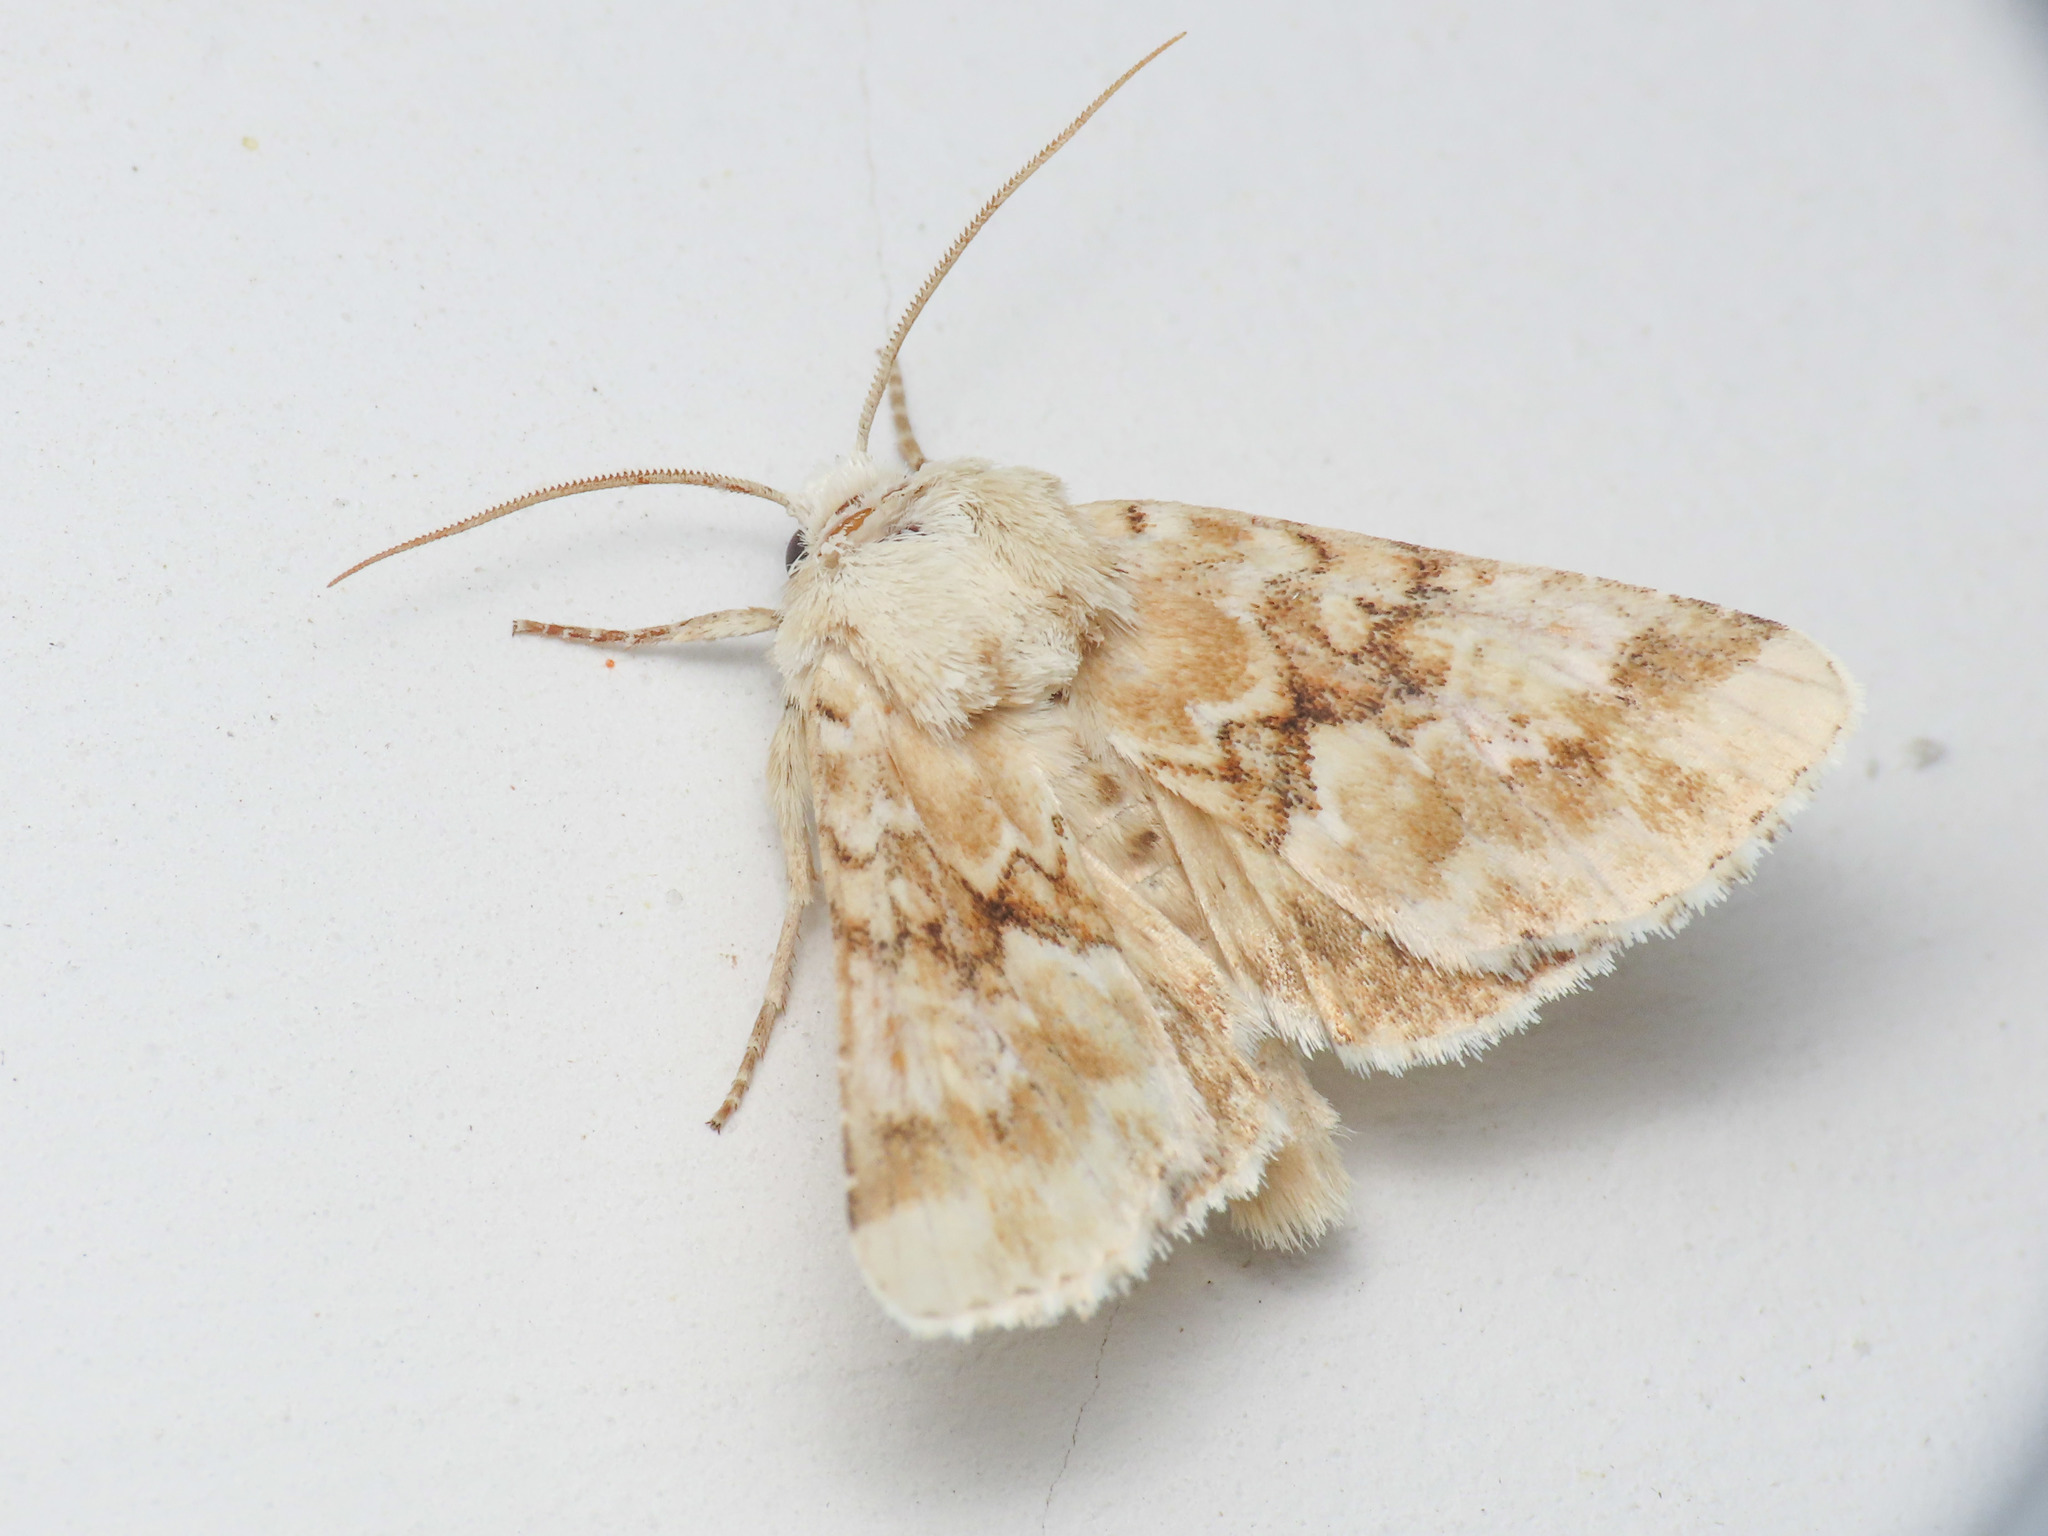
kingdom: Animalia
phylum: Arthropoda
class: Insecta
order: Lepidoptera
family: Noctuidae
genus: Eremobia
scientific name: Eremobia ochroleuca
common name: Dusky sallow
